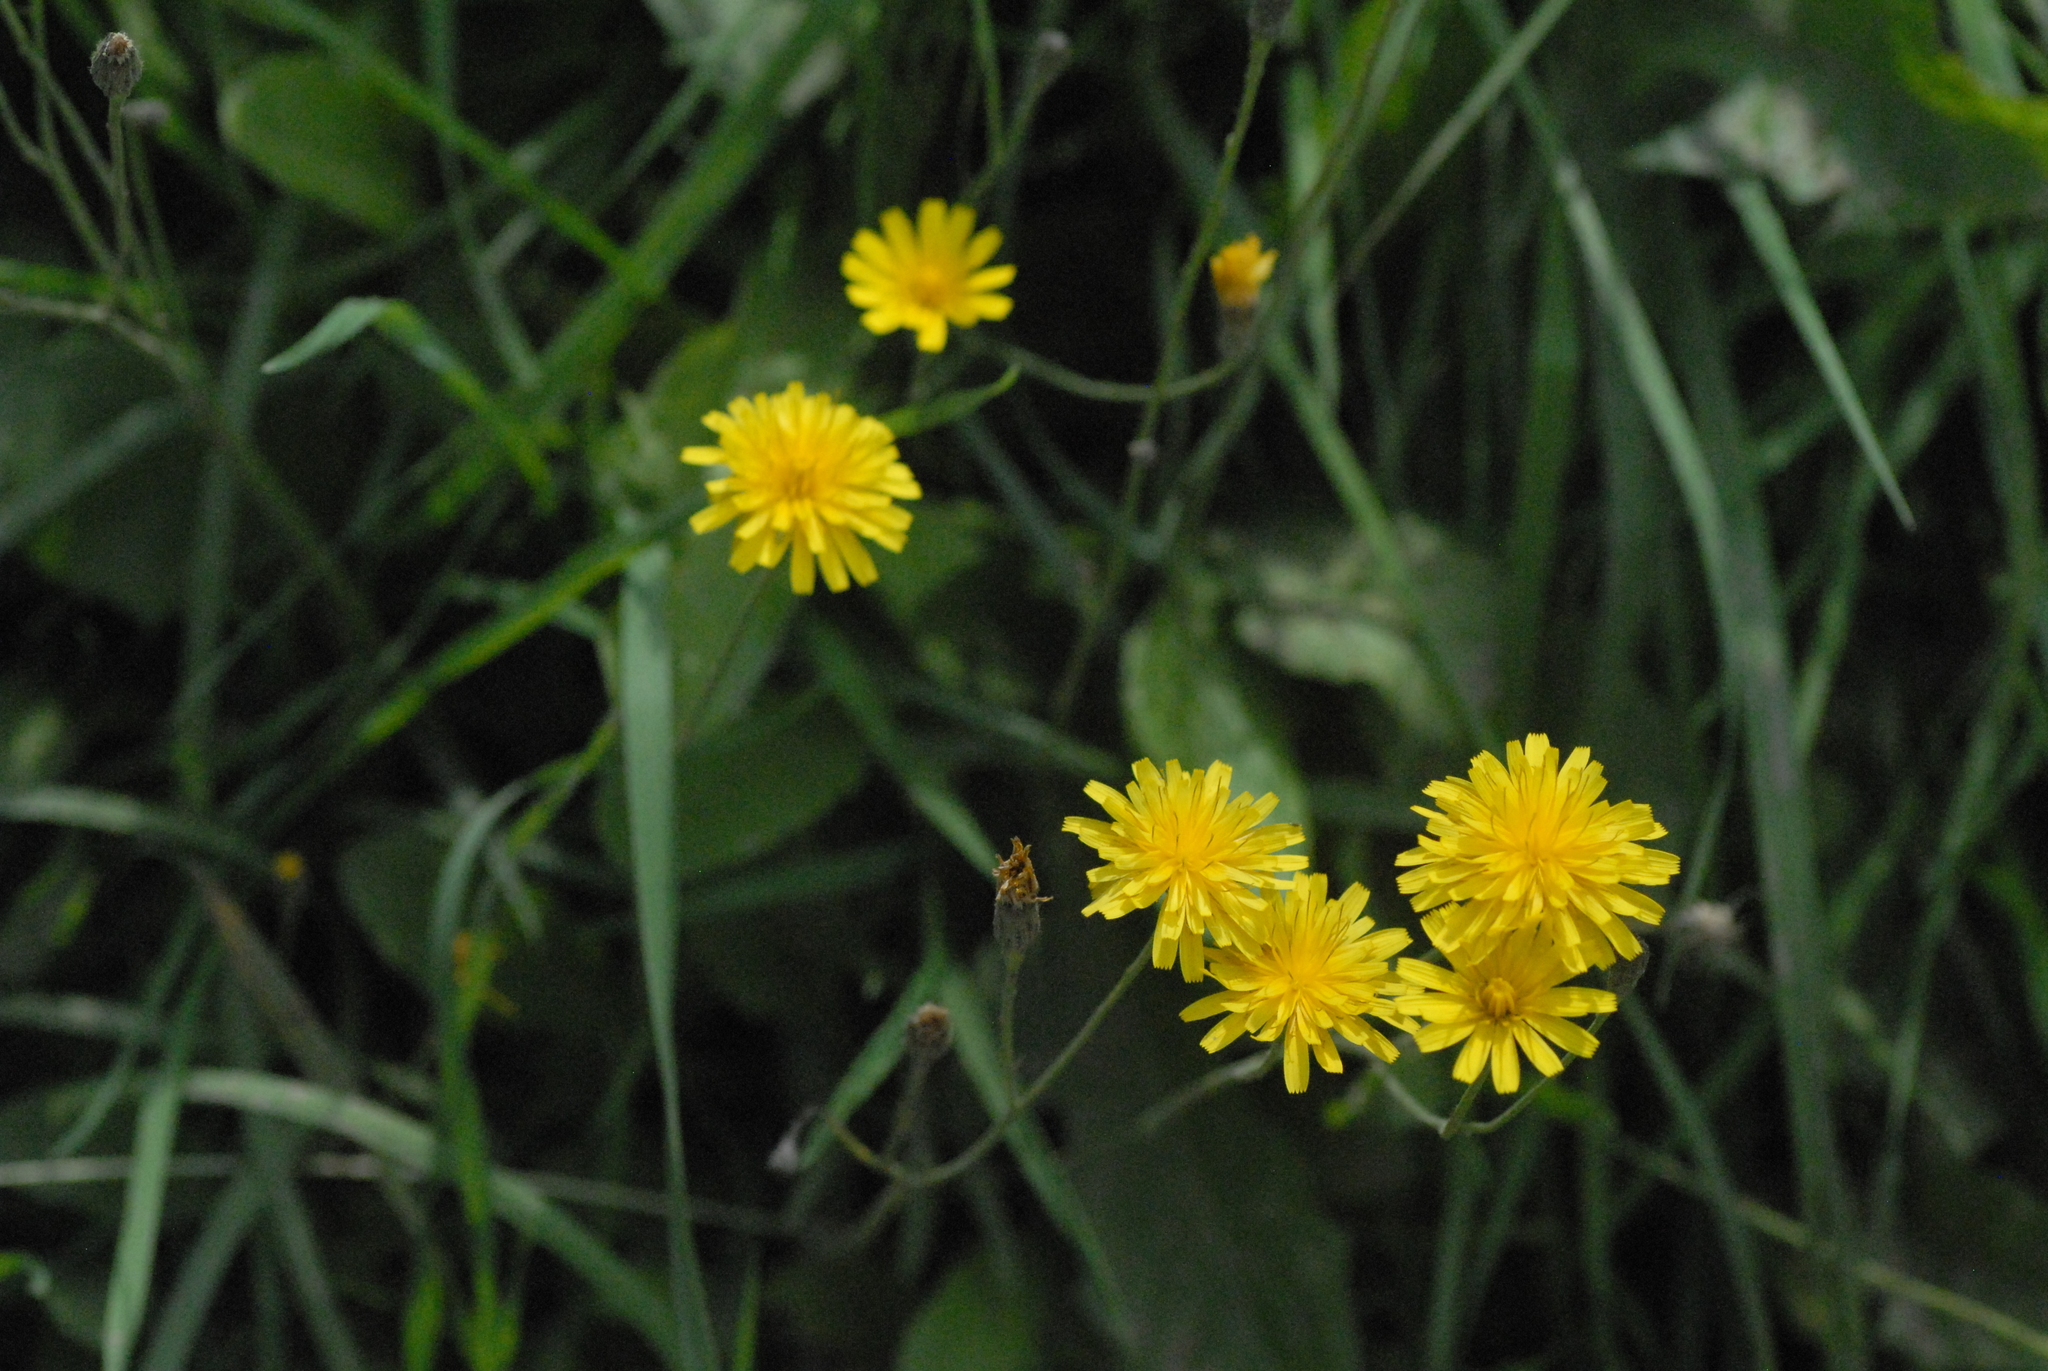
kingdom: Plantae
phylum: Tracheophyta
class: Magnoliopsida
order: Asterales
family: Asteraceae
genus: Scorzoneroides
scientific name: Scorzoneroides autumnalis
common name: Autumn hawkbit
